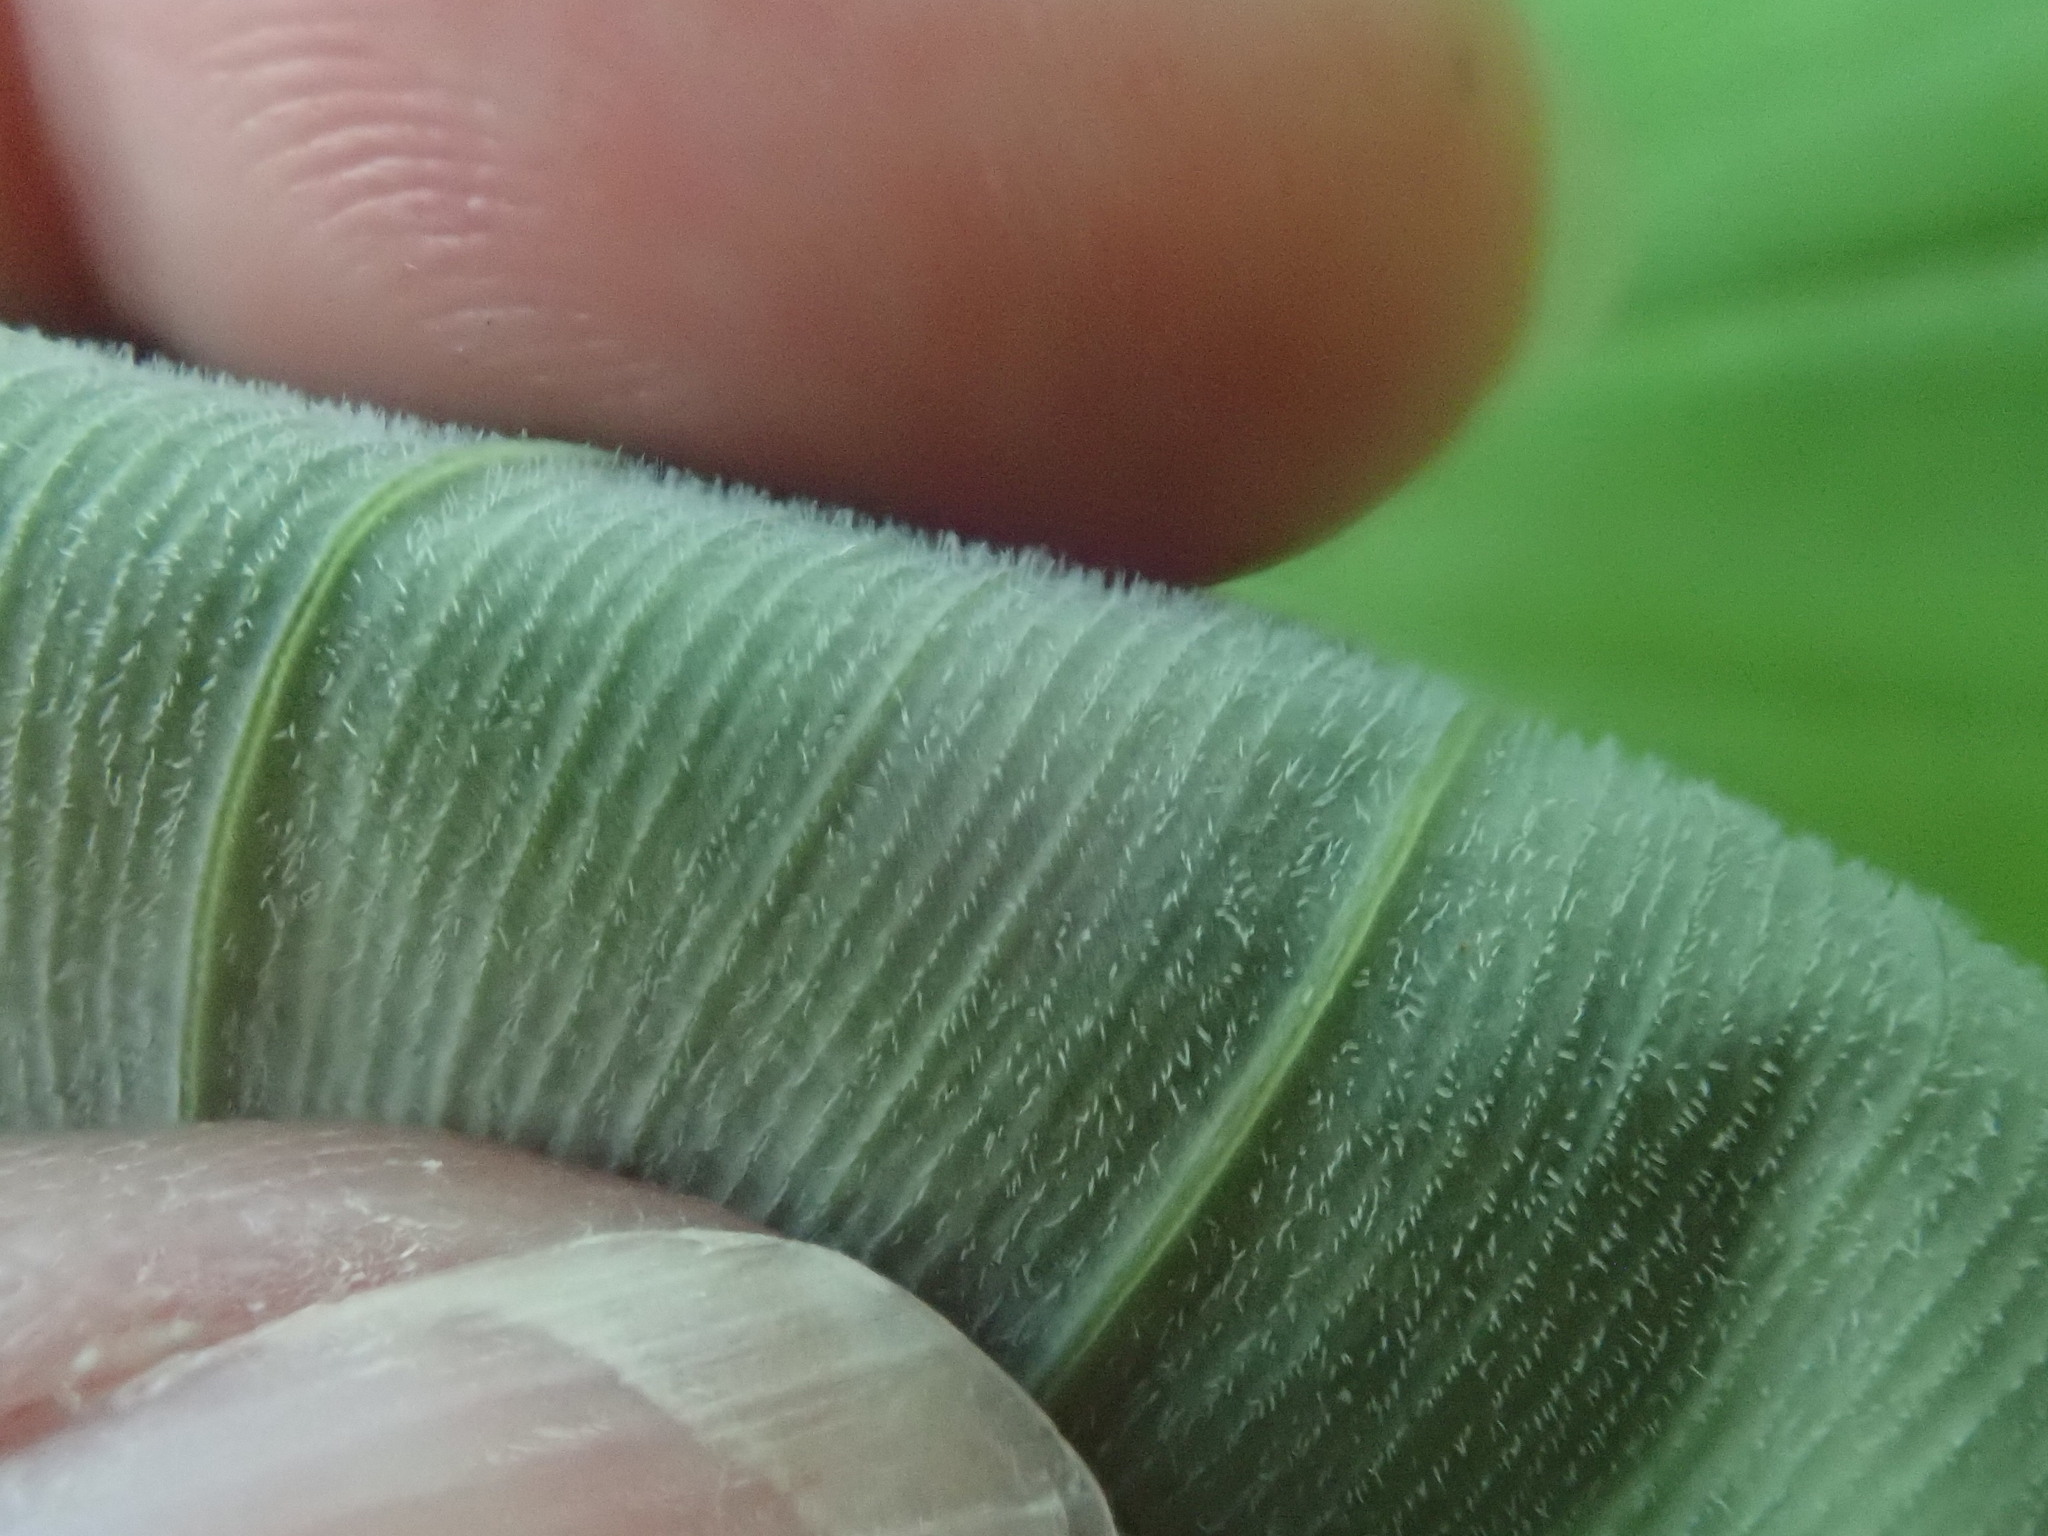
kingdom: Plantae
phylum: Tracheophyta
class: Liliopsida
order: Asparagales
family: Asparagaceae
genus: Polygonatum
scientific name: Polygonatum pubescens
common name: Downy solomon's seal
